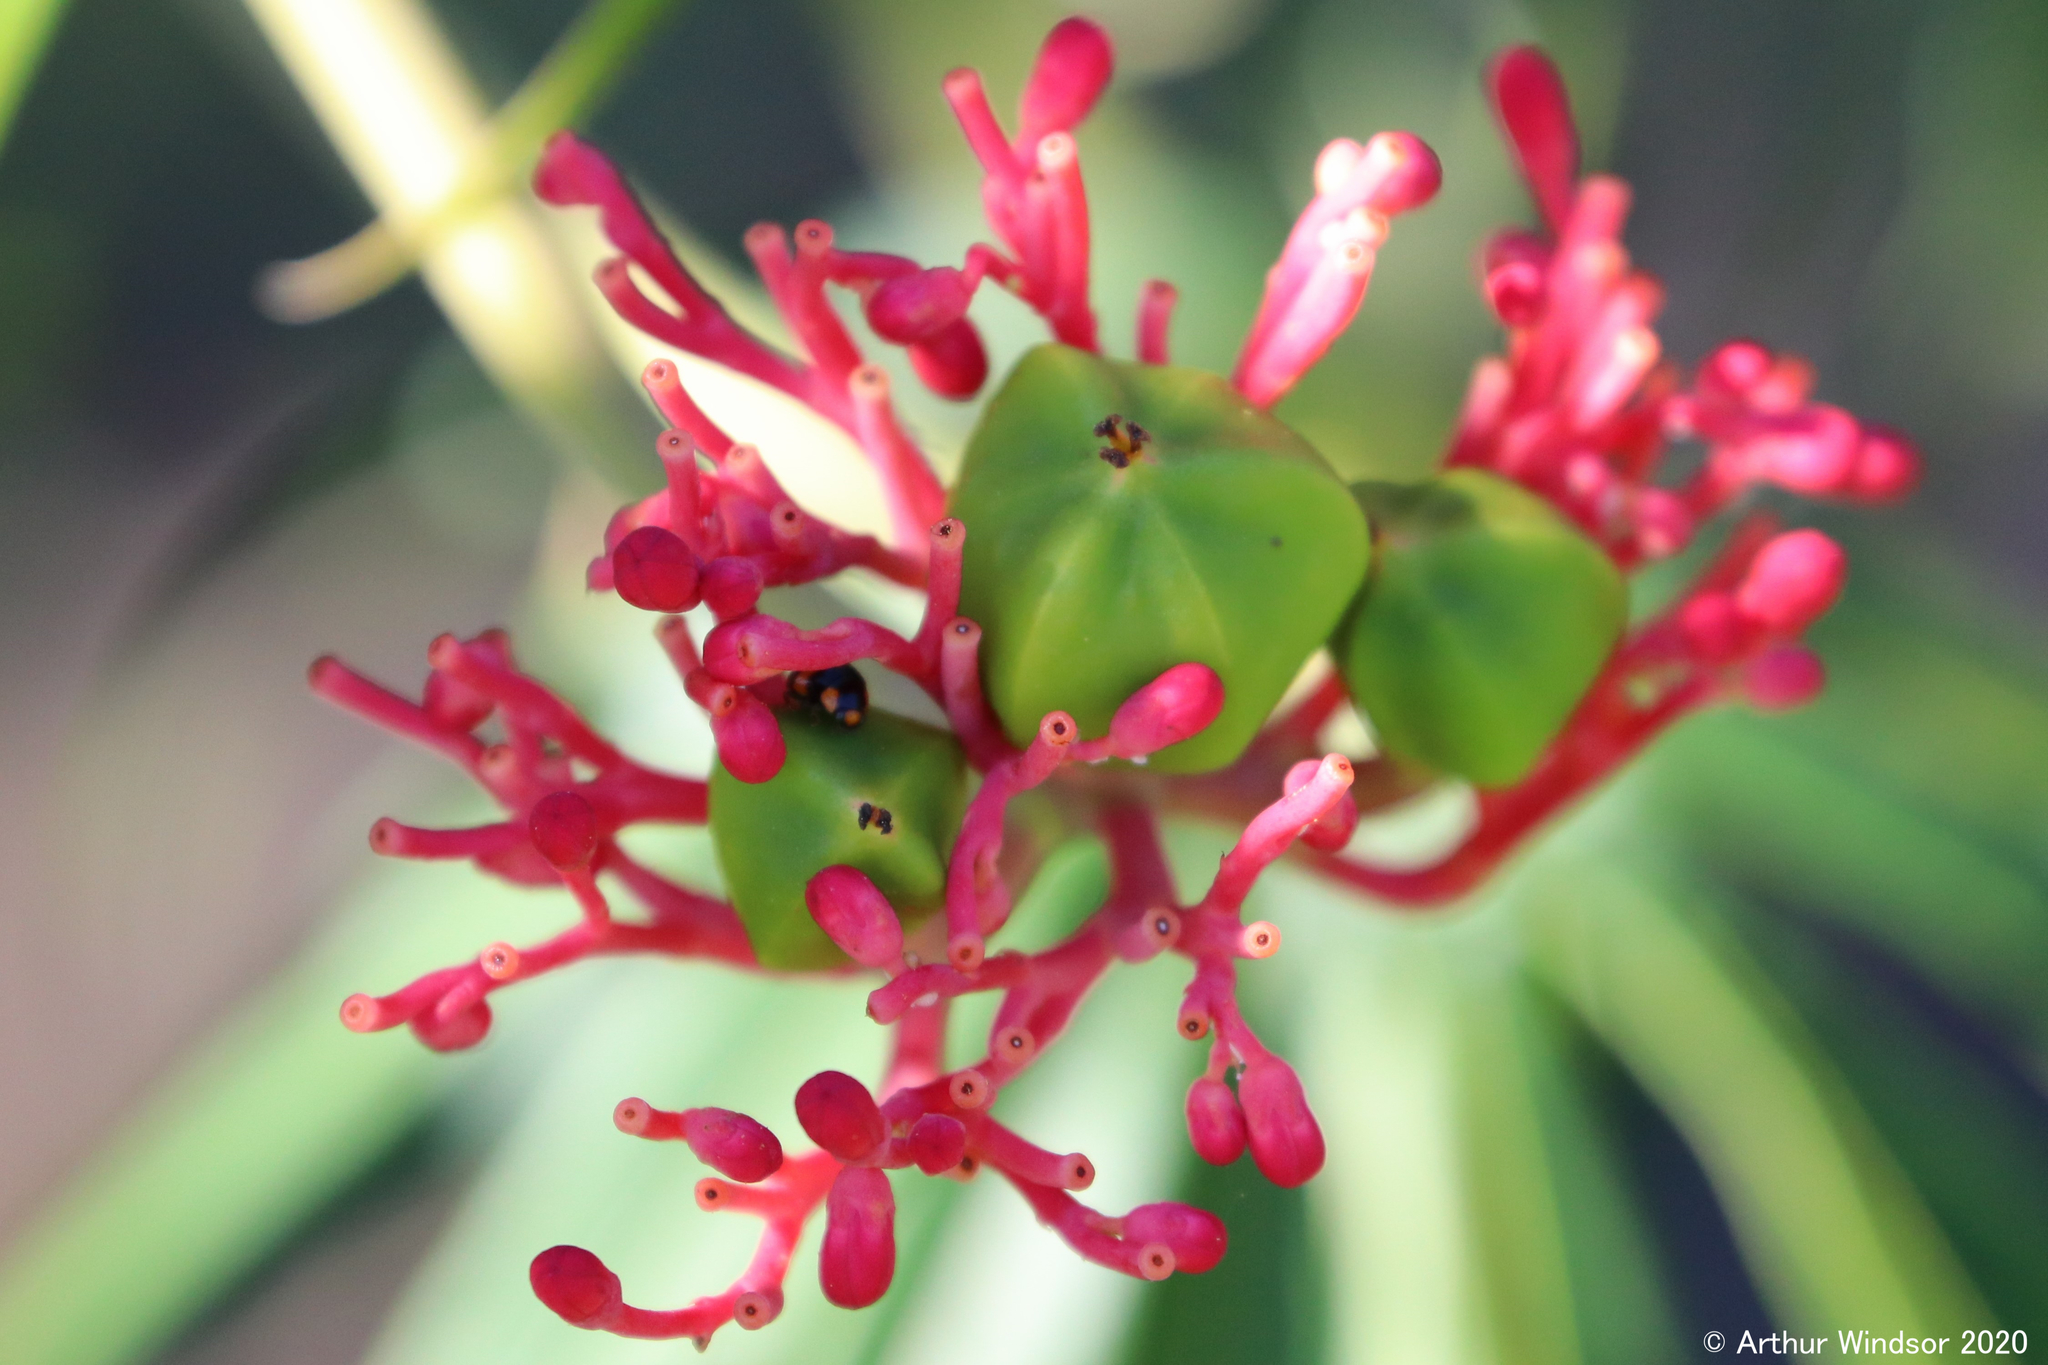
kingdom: Animalia
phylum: Arthropoda
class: Insecta
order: Coleoptera
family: Coccinellidae
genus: Brachiacantha
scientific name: Brachiacantha dentipes
